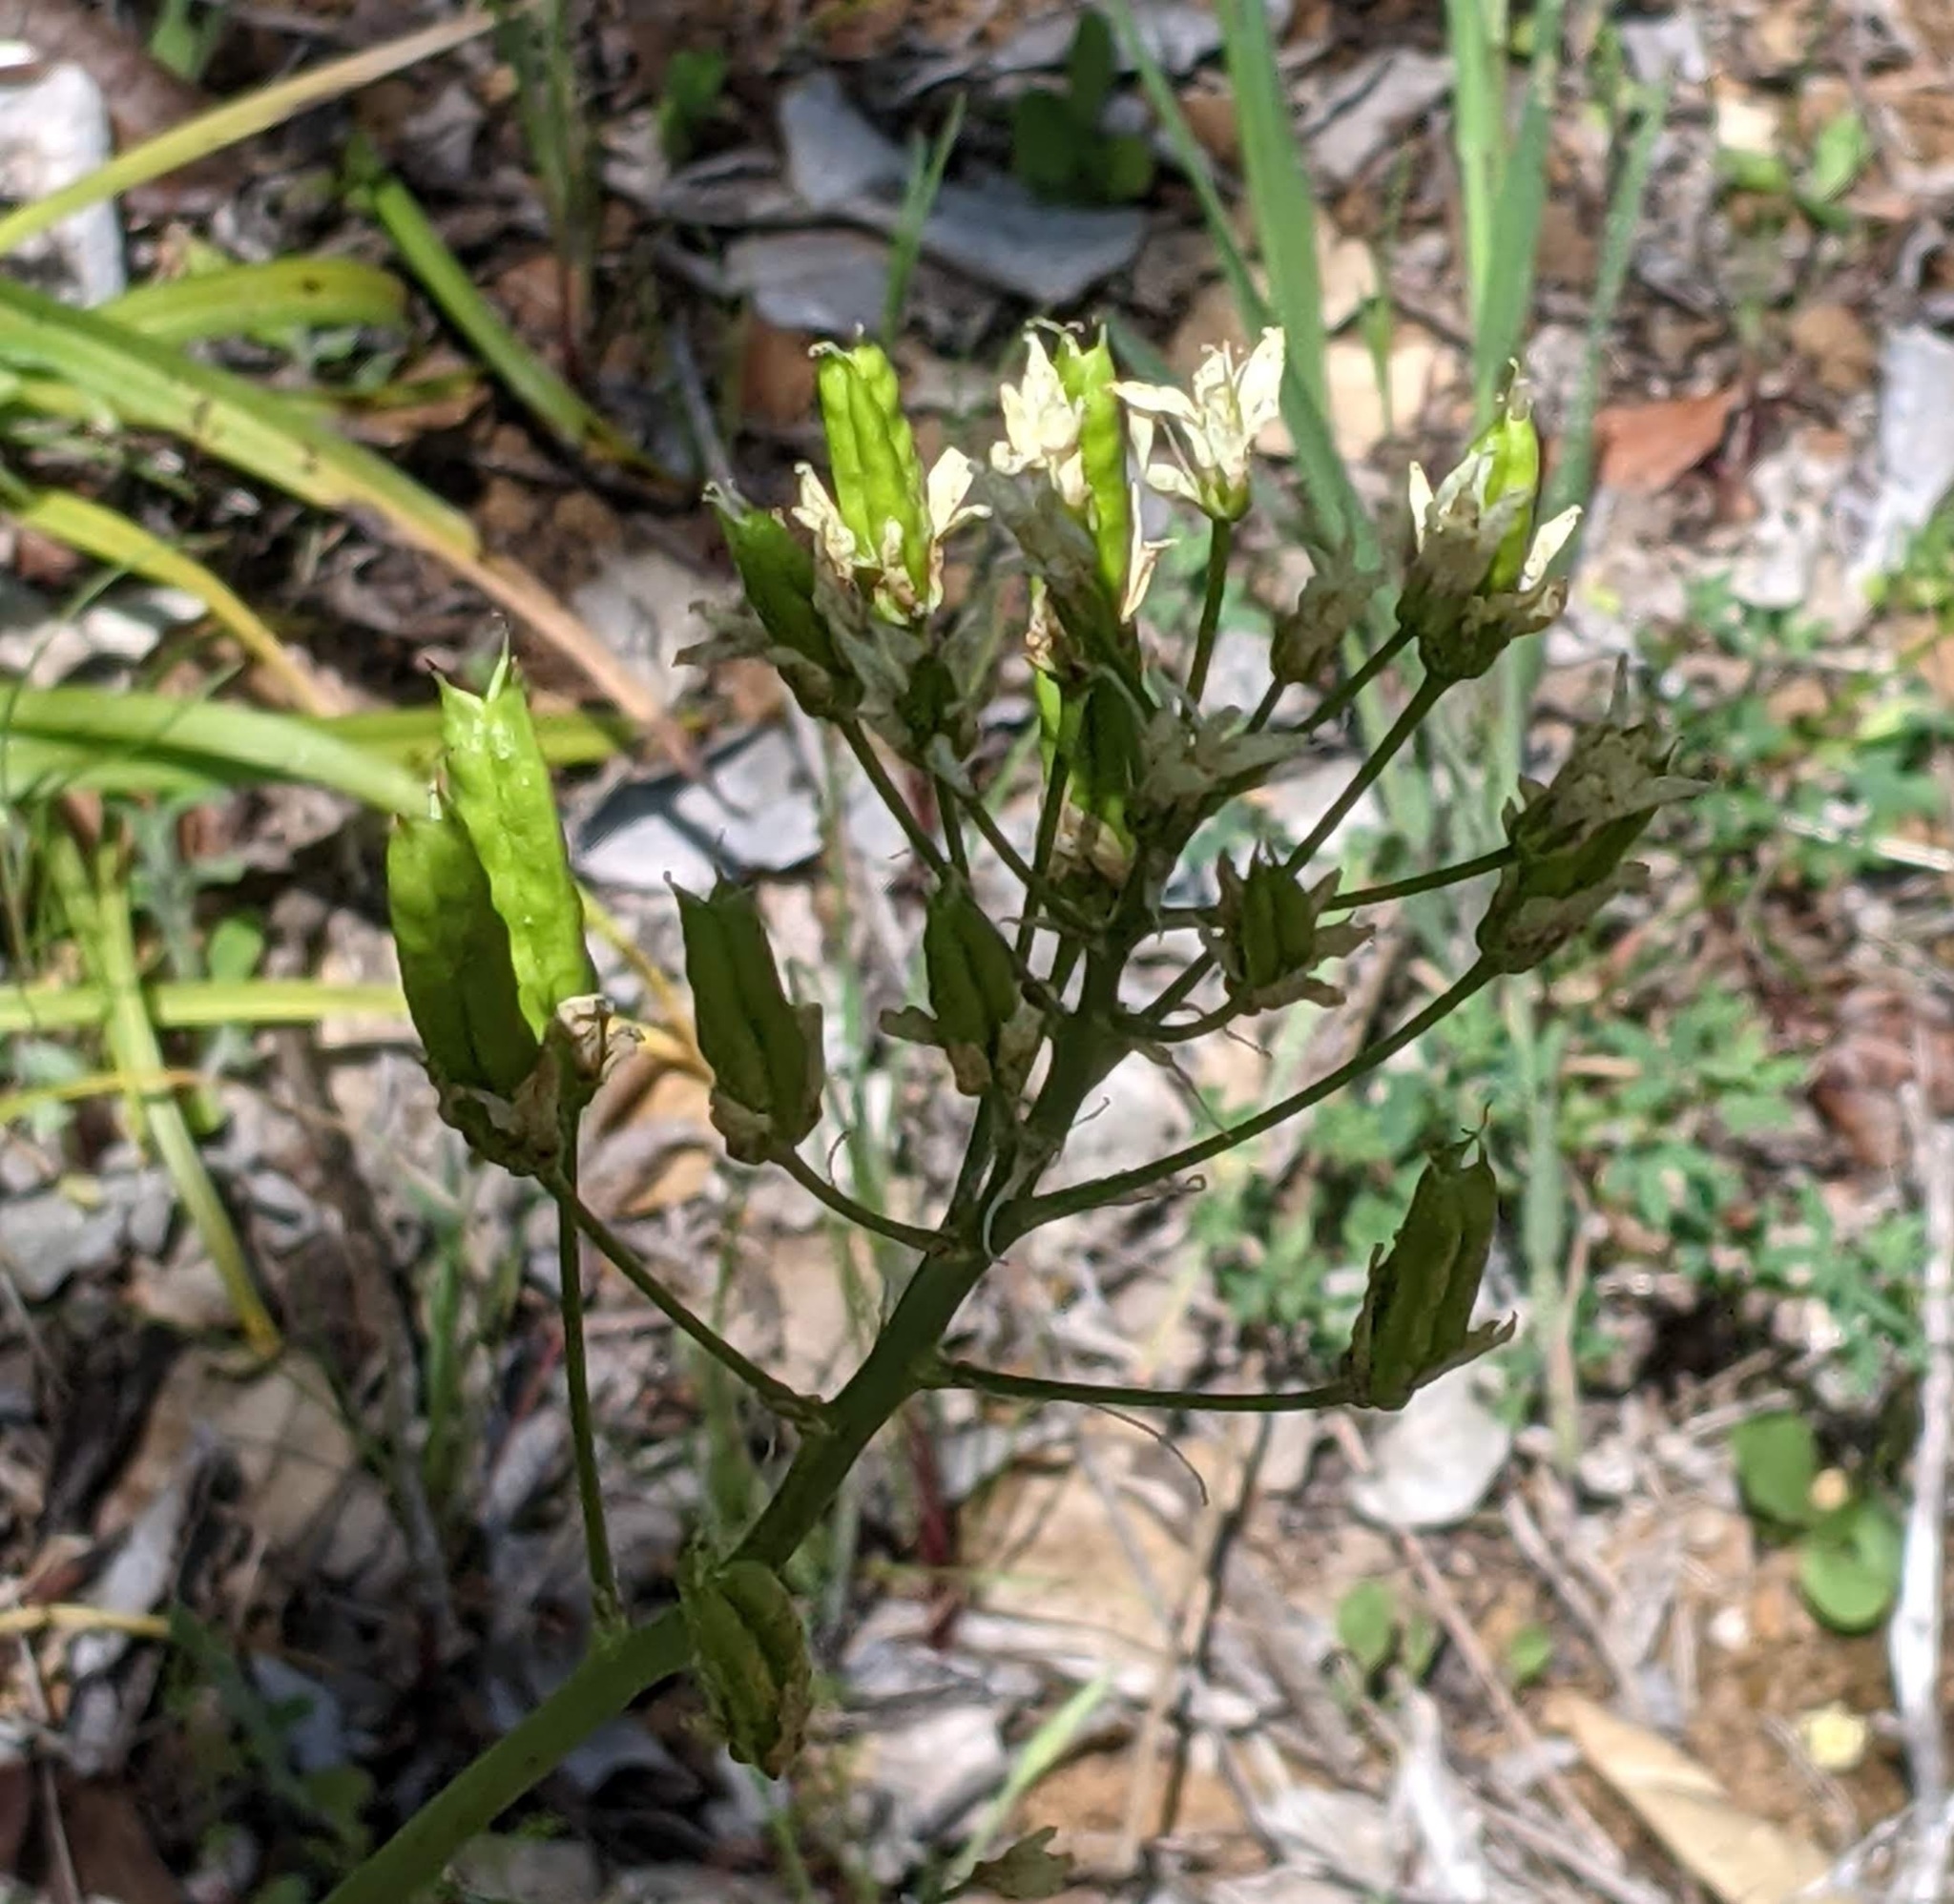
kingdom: Plantae
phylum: Tracheophyta
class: Liliopsida
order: Liliales
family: Melanthiaceae
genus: Toxicoscordion
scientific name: Toxicoscordion fremontii
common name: Fremont's death camas
